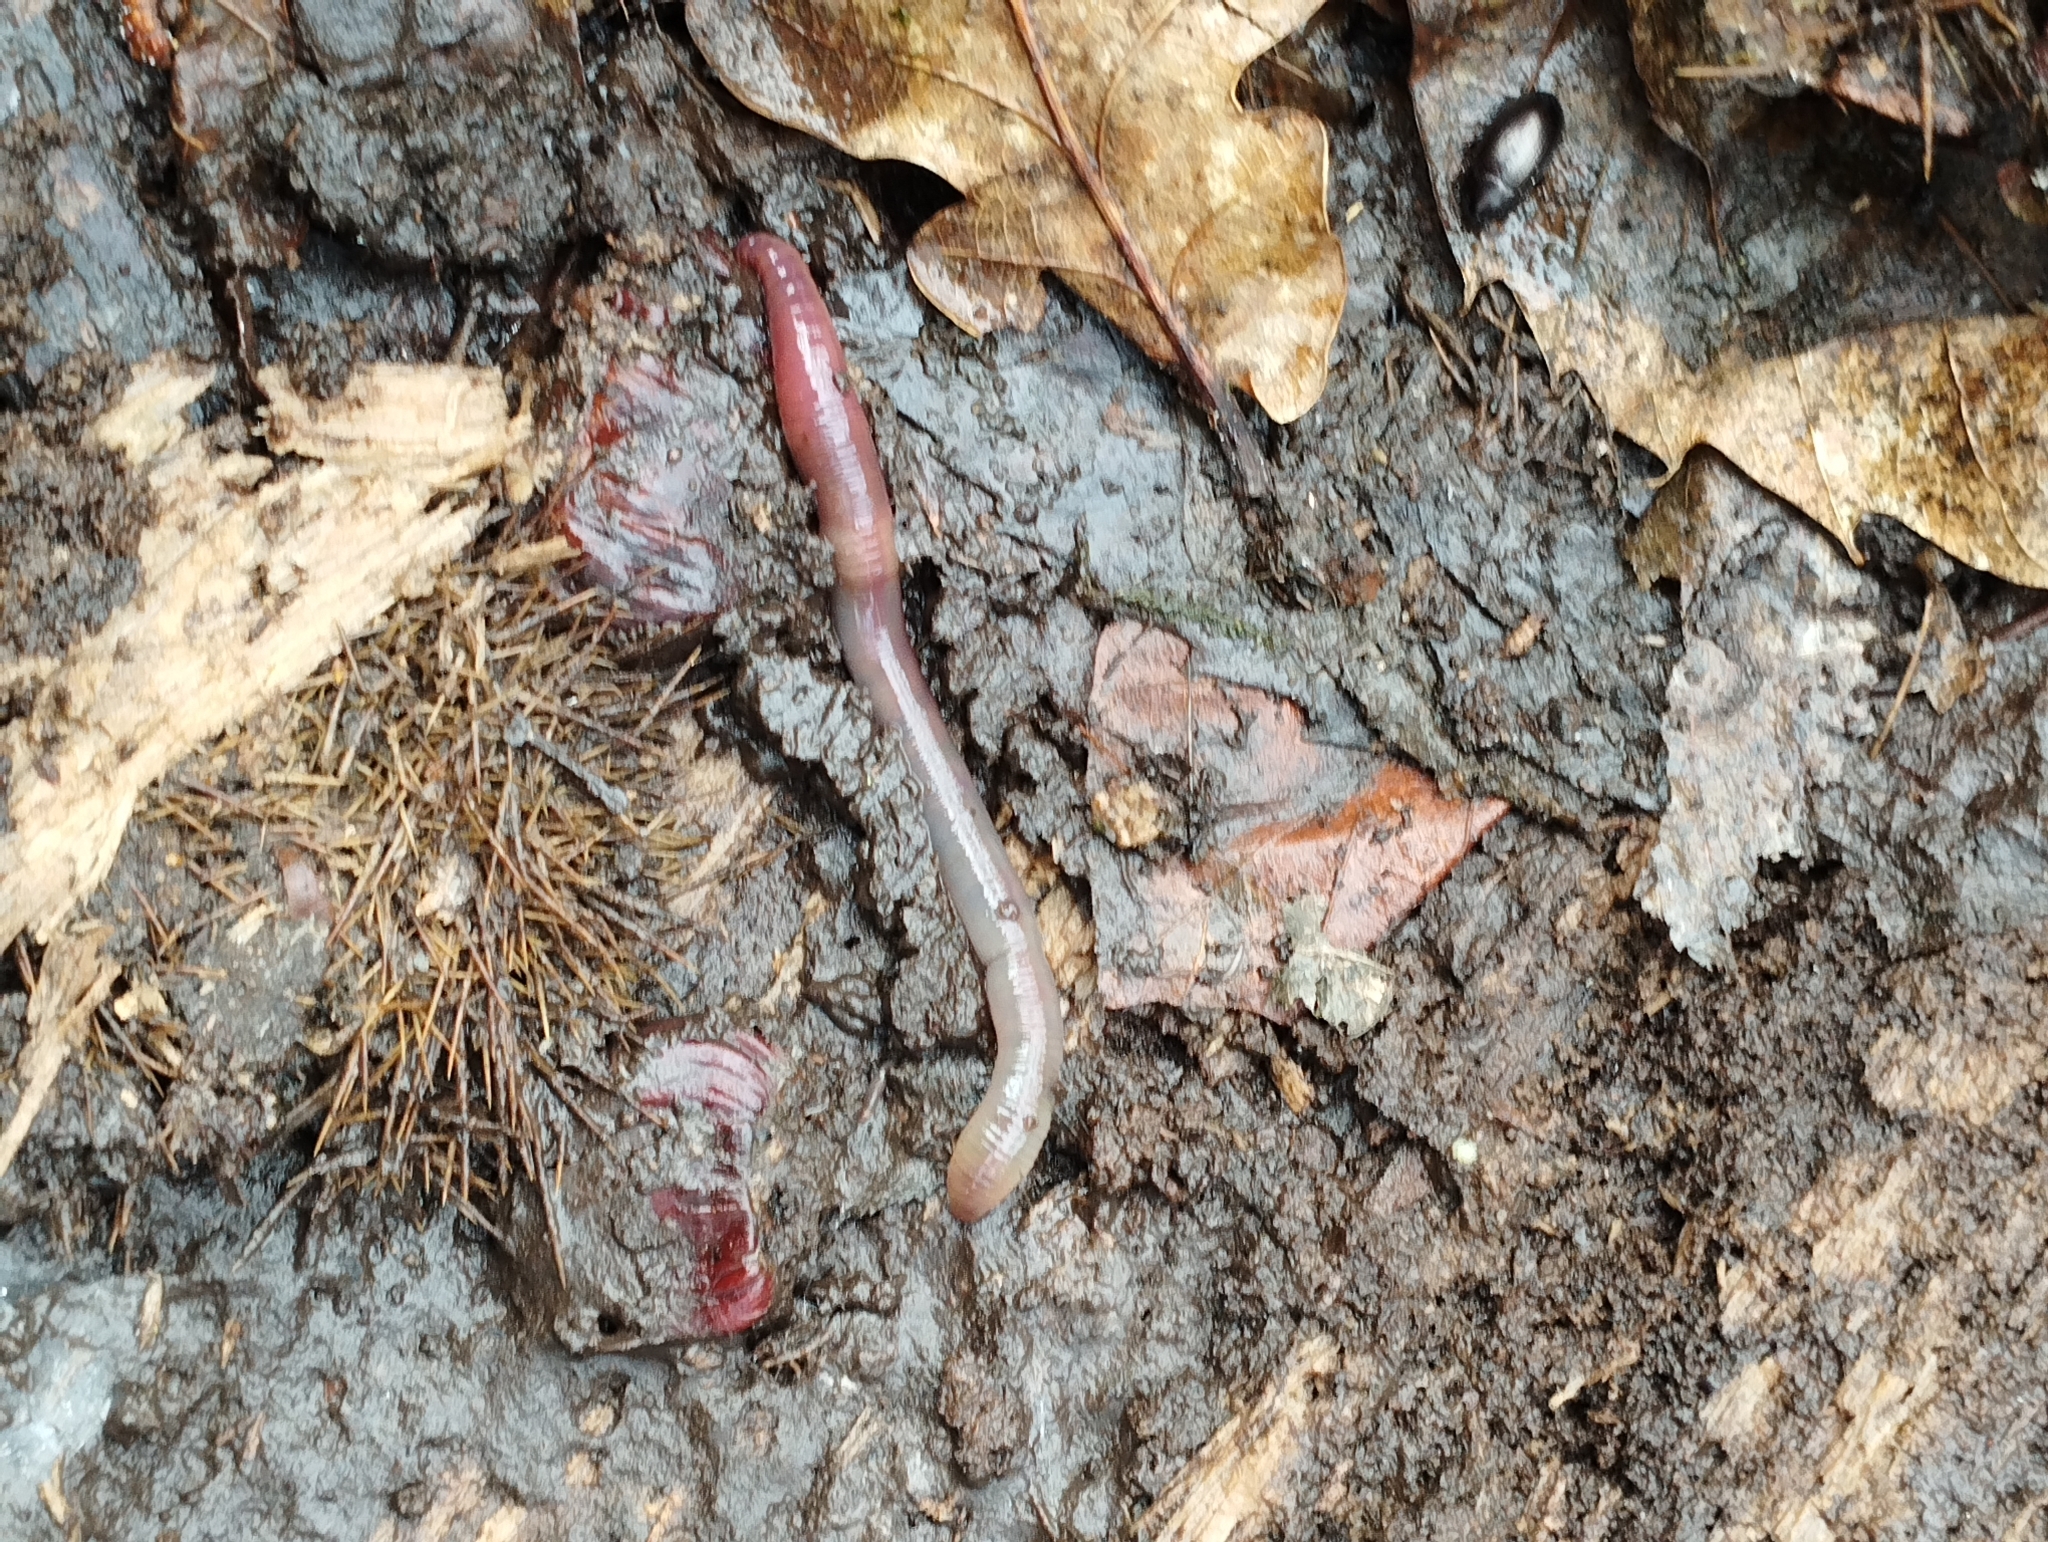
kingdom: Animalia
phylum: Annelida
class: Clitellata
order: Crassiclitellata
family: Lumbricidae
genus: Lumbricus
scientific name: Lumbricus terrestris
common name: Common earthworm
